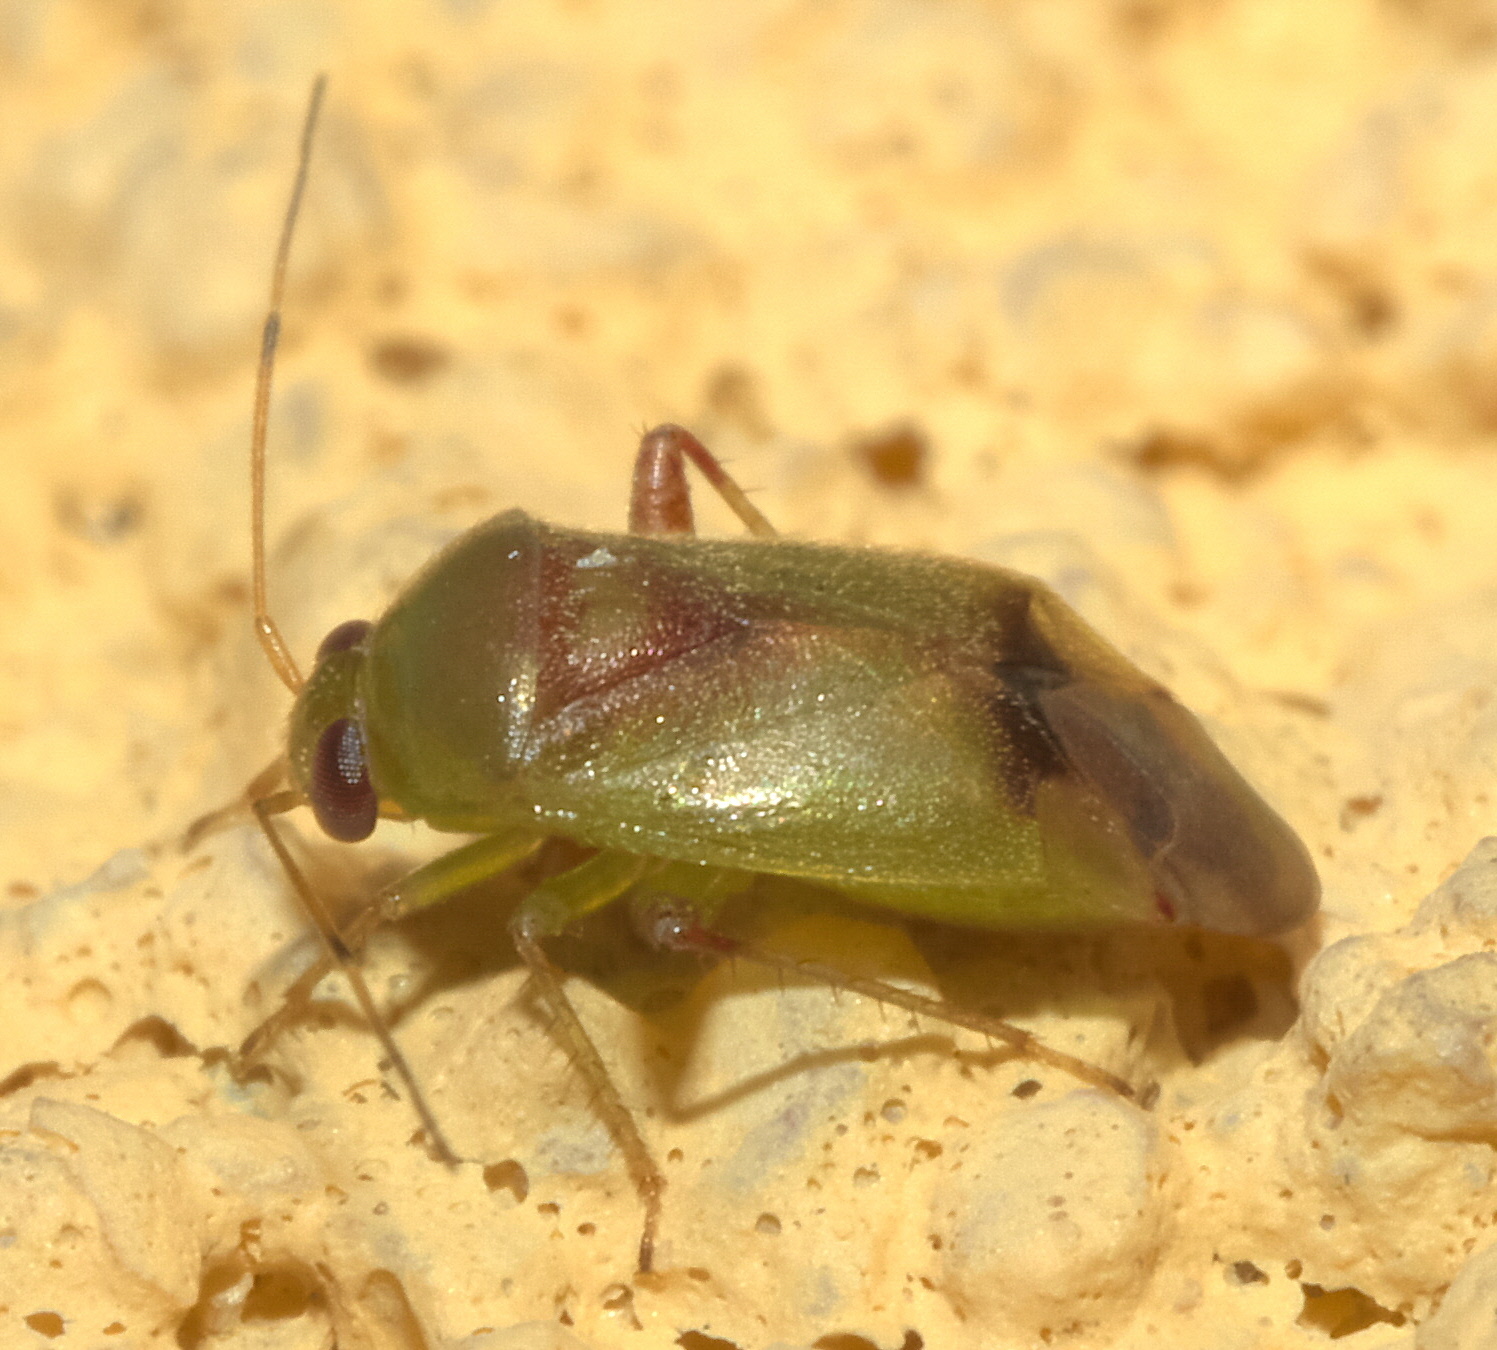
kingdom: Animalia
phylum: Arthropoda
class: Insecta
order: Hemiptera
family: Miridae
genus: Dagbertus
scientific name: Dagbertus olivaceus
